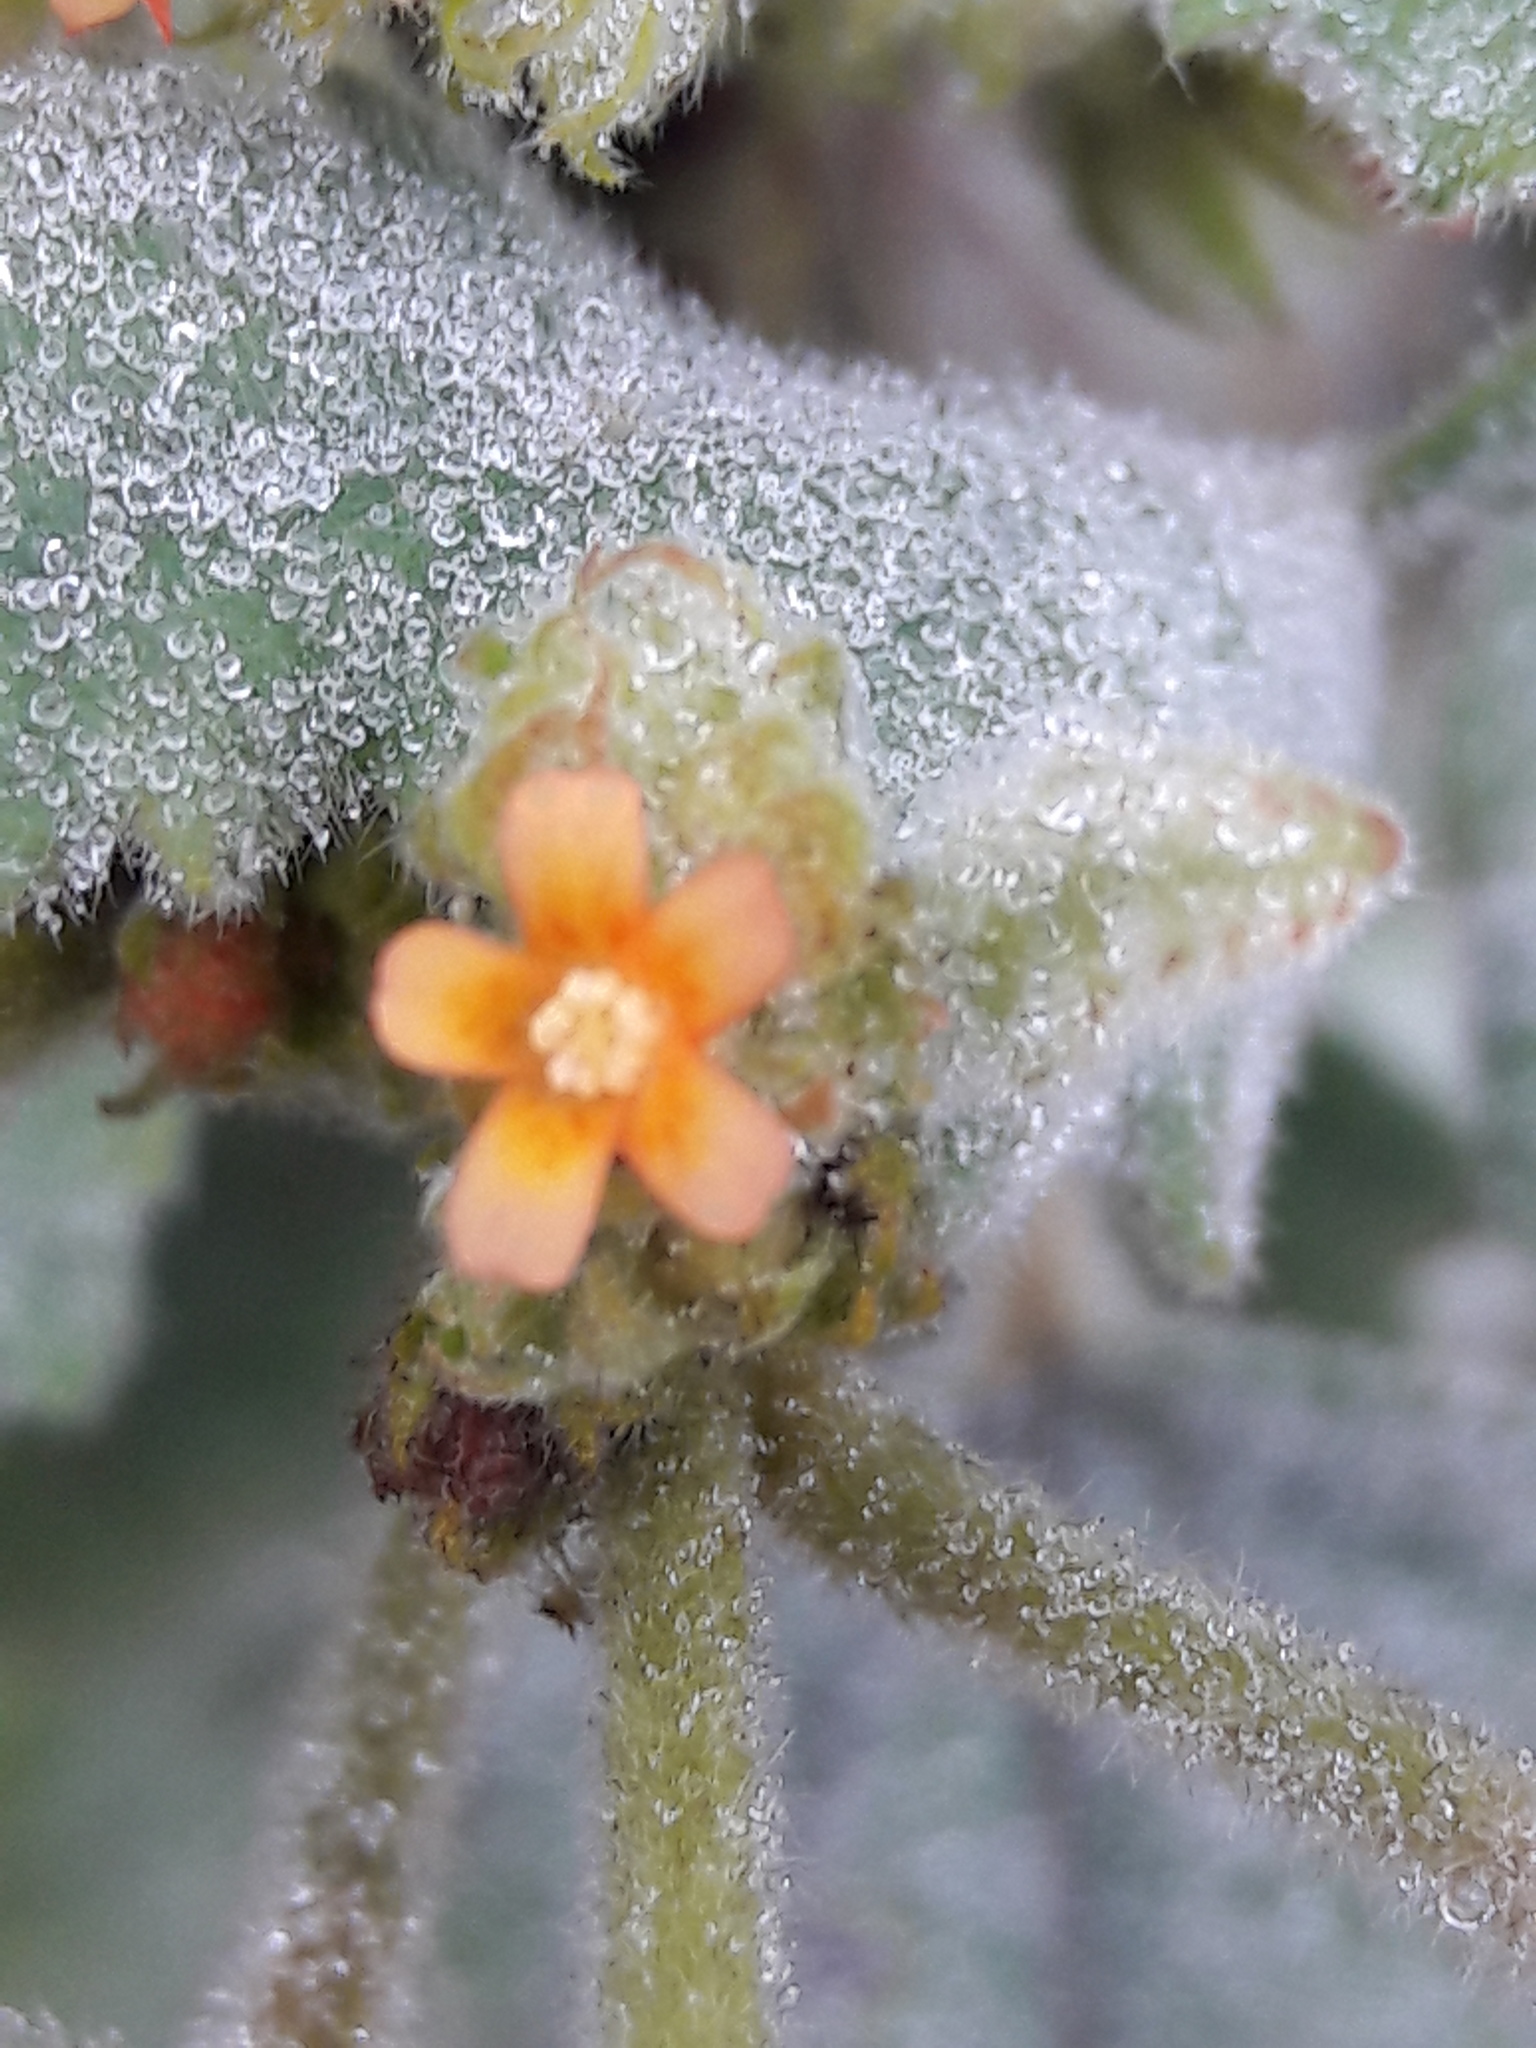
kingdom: Plantae
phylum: Tracheophyta
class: Magnoliopsida
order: Malvales
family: Malvaceae
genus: Waltheria
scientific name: Waltheria indica
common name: Leather-coat
